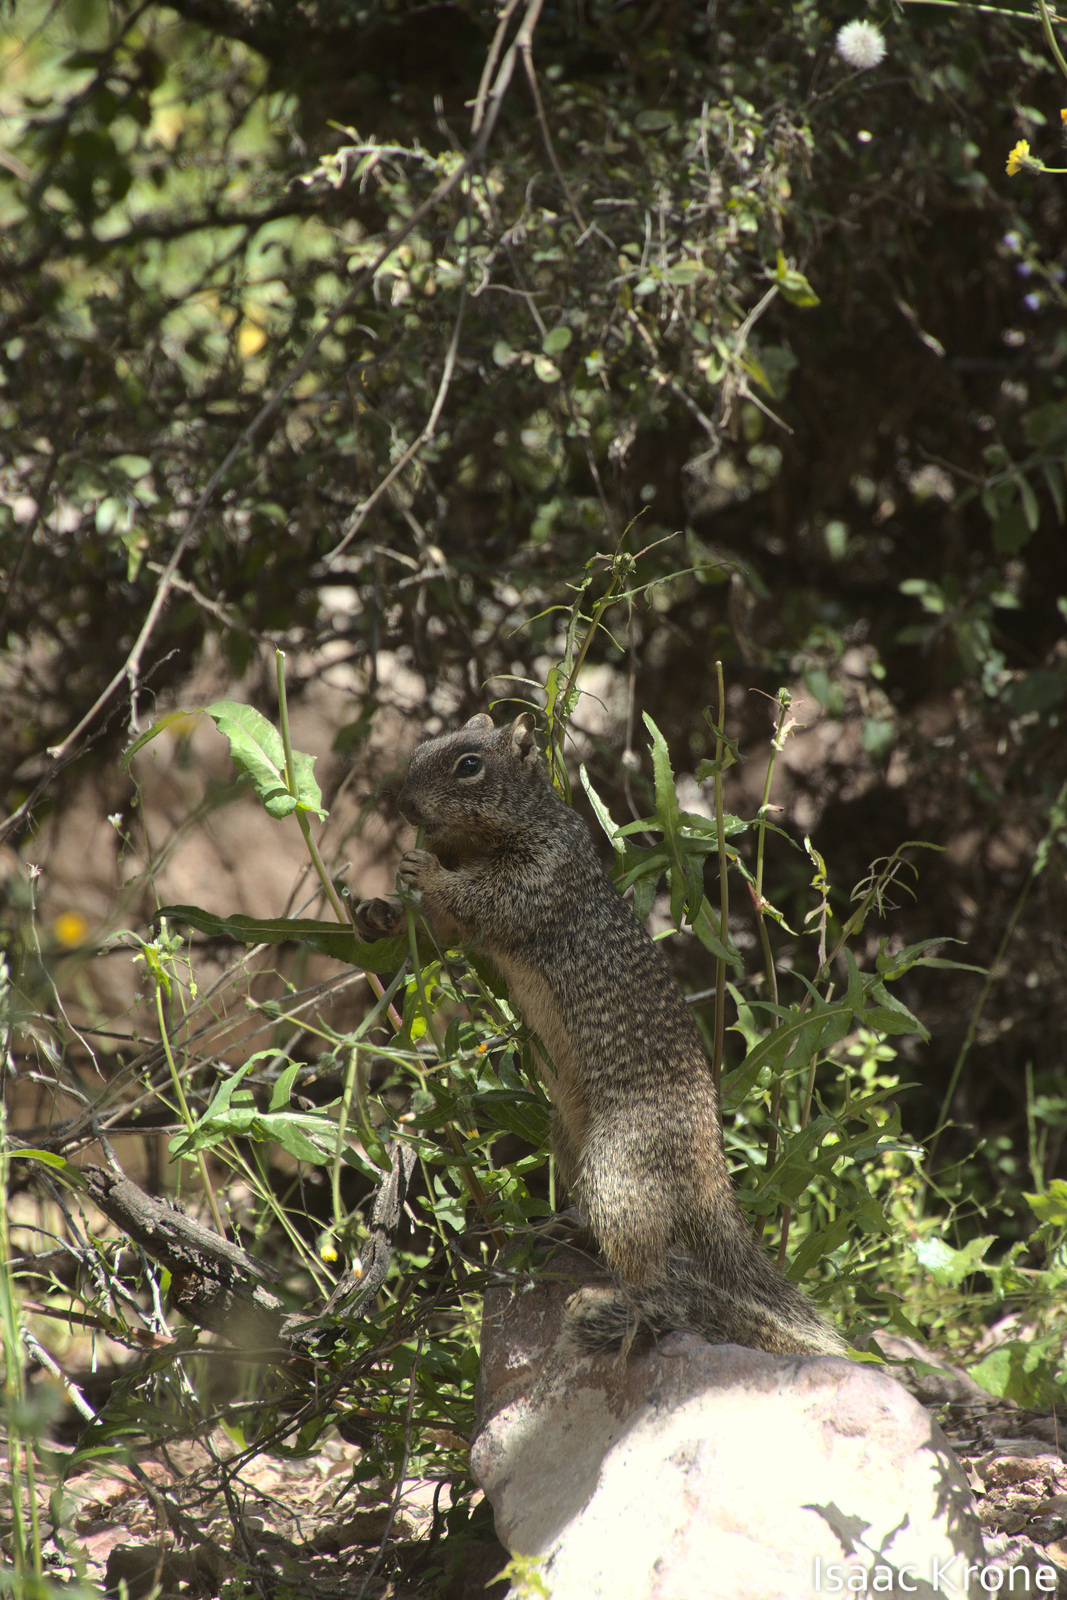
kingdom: Animalia
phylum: Chordata
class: Mammalia
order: Rodentia
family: Sciuridae
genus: Otospermophilus
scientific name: Otospermophilus variegatus
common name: Rock squirrel
